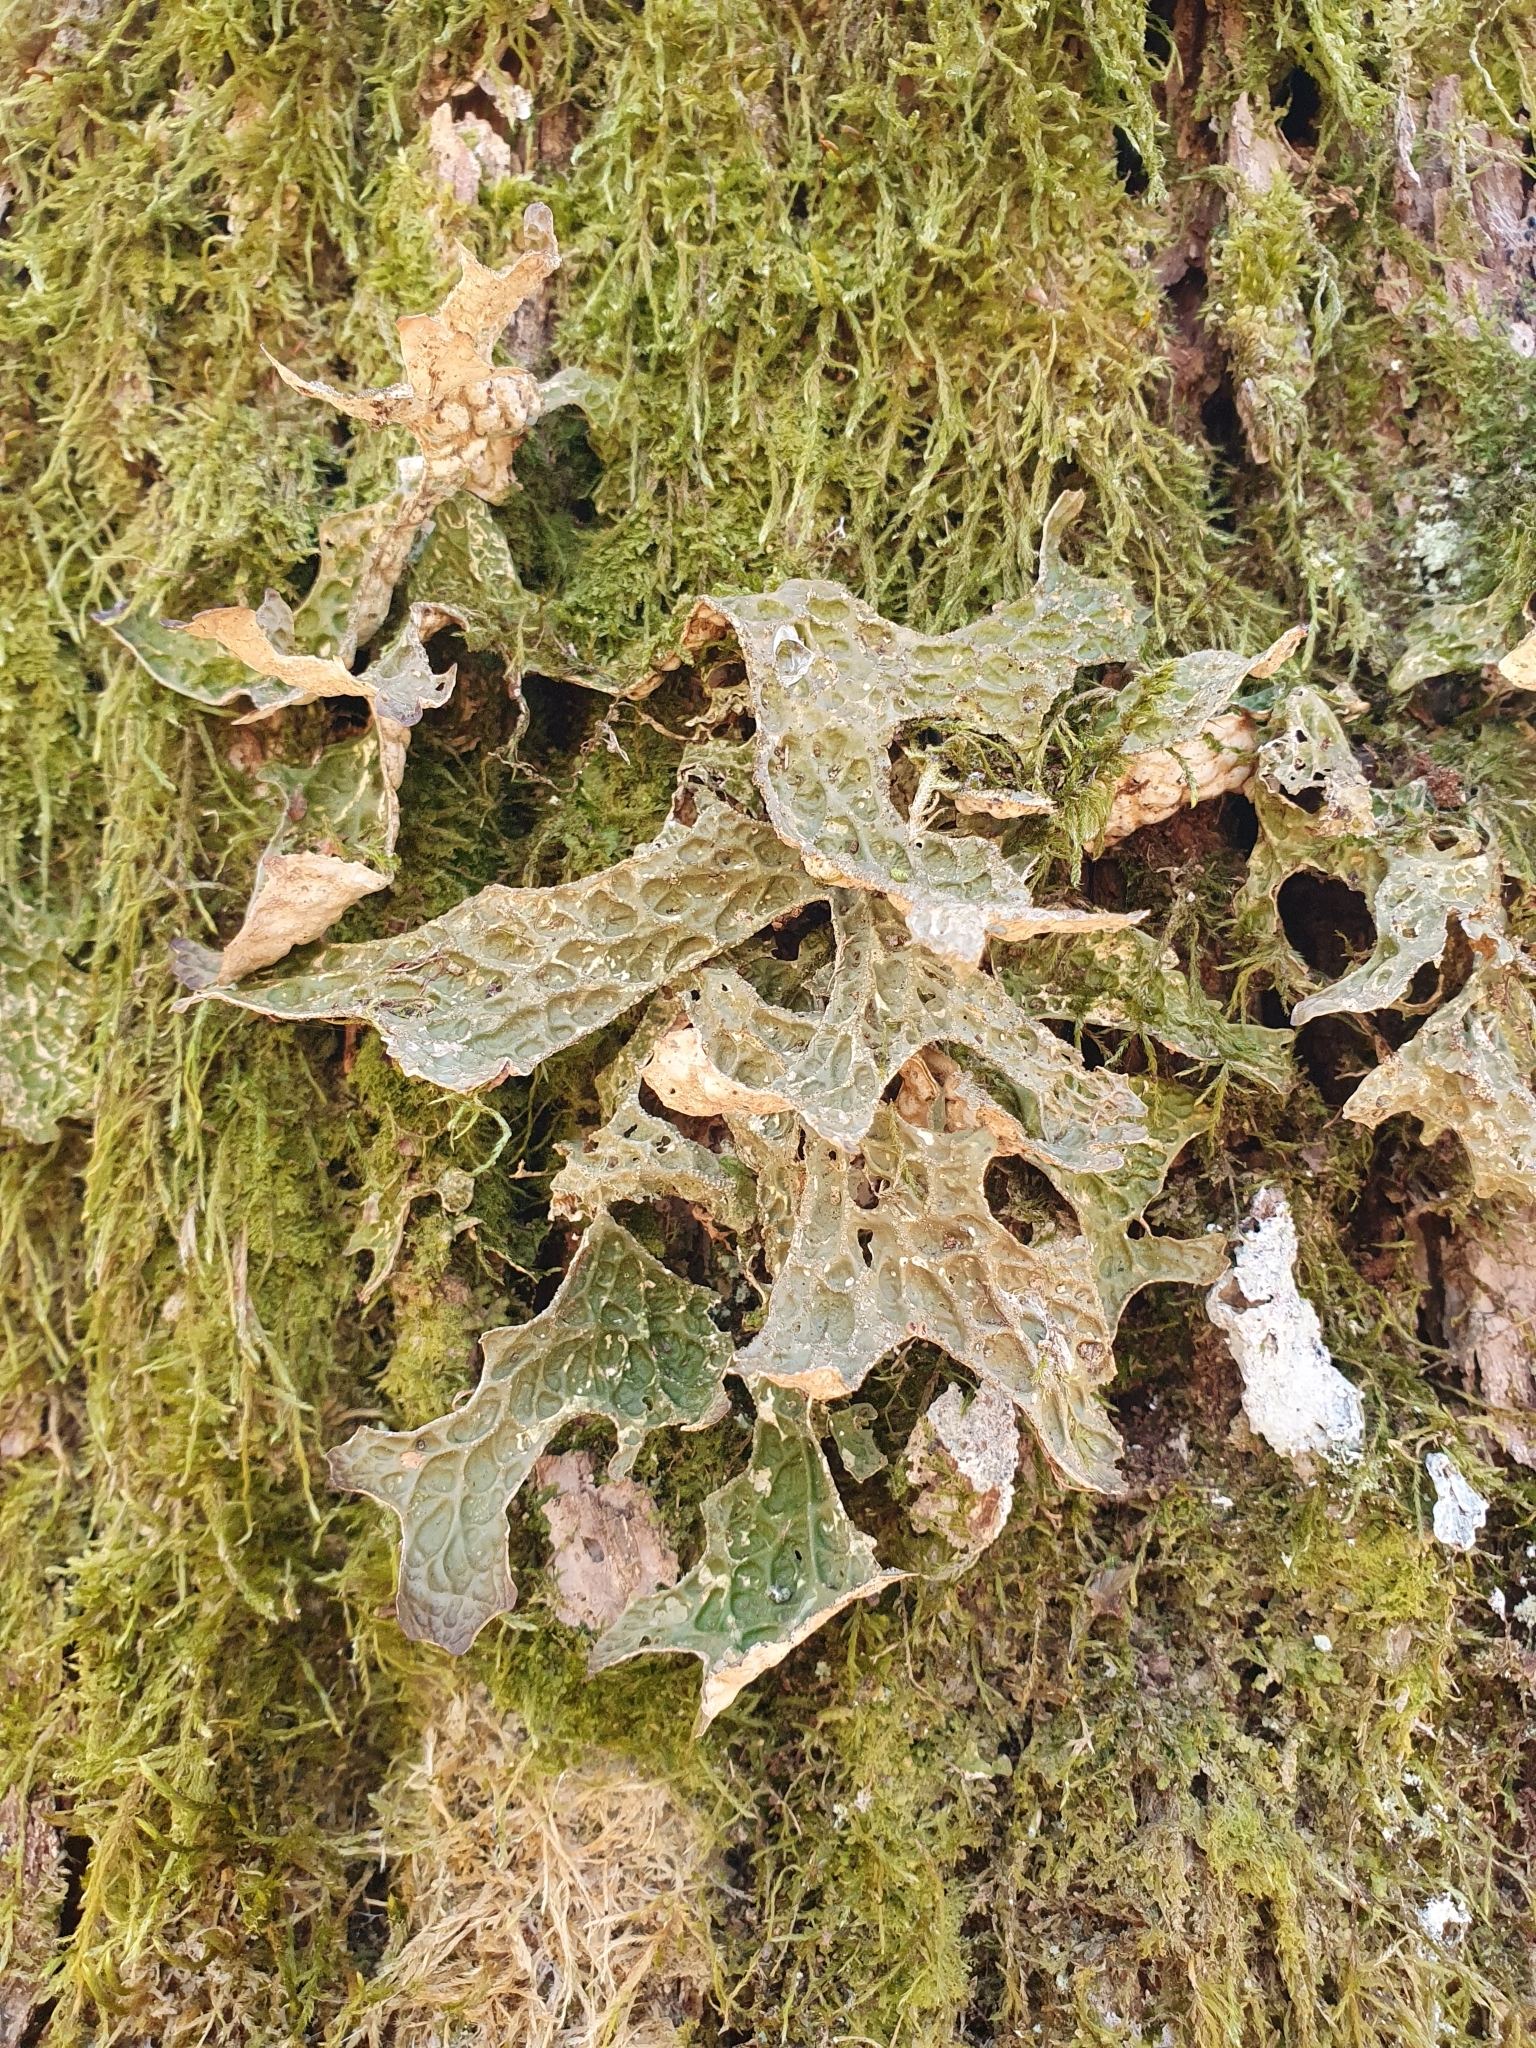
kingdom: Fungi
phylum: Ascomycota
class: Lecanoromycetes
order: Peltigerales
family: Lobariaceae
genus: Lobaria
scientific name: Lobaria pulmonaria
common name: Lungwort
